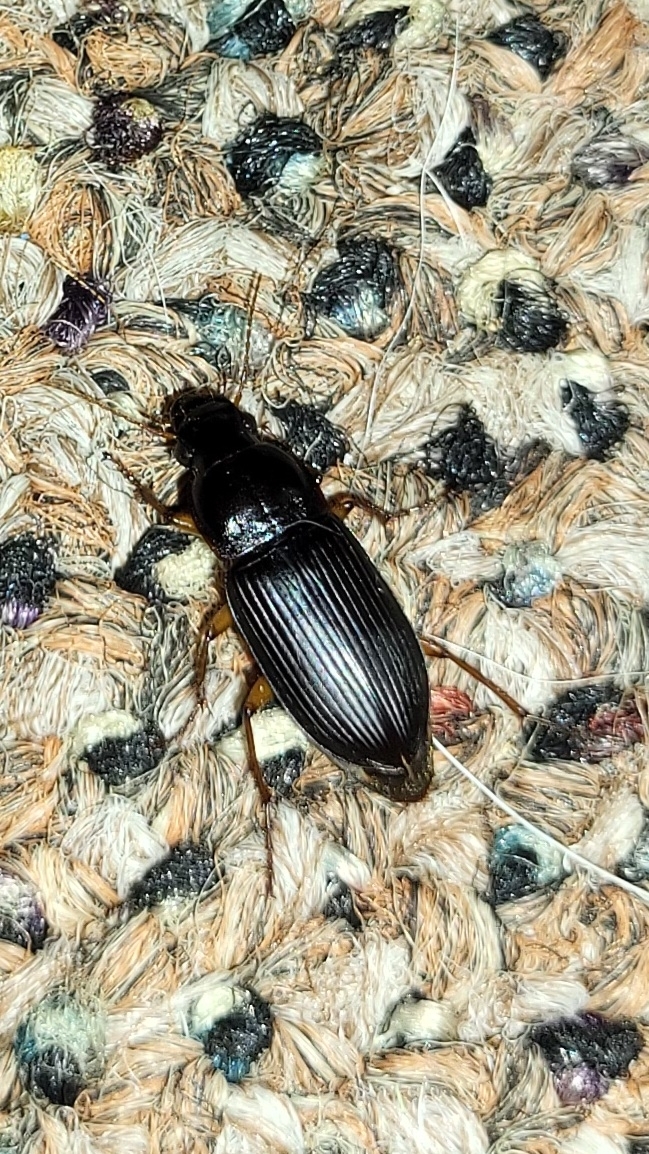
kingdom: Animalia
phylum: Arthropoda
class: Insecta
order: Coleoptera
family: Carabidae
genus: Harpalus
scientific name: Harpalus pensylvanicus
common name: Pennsylvania dingy ground beetle
